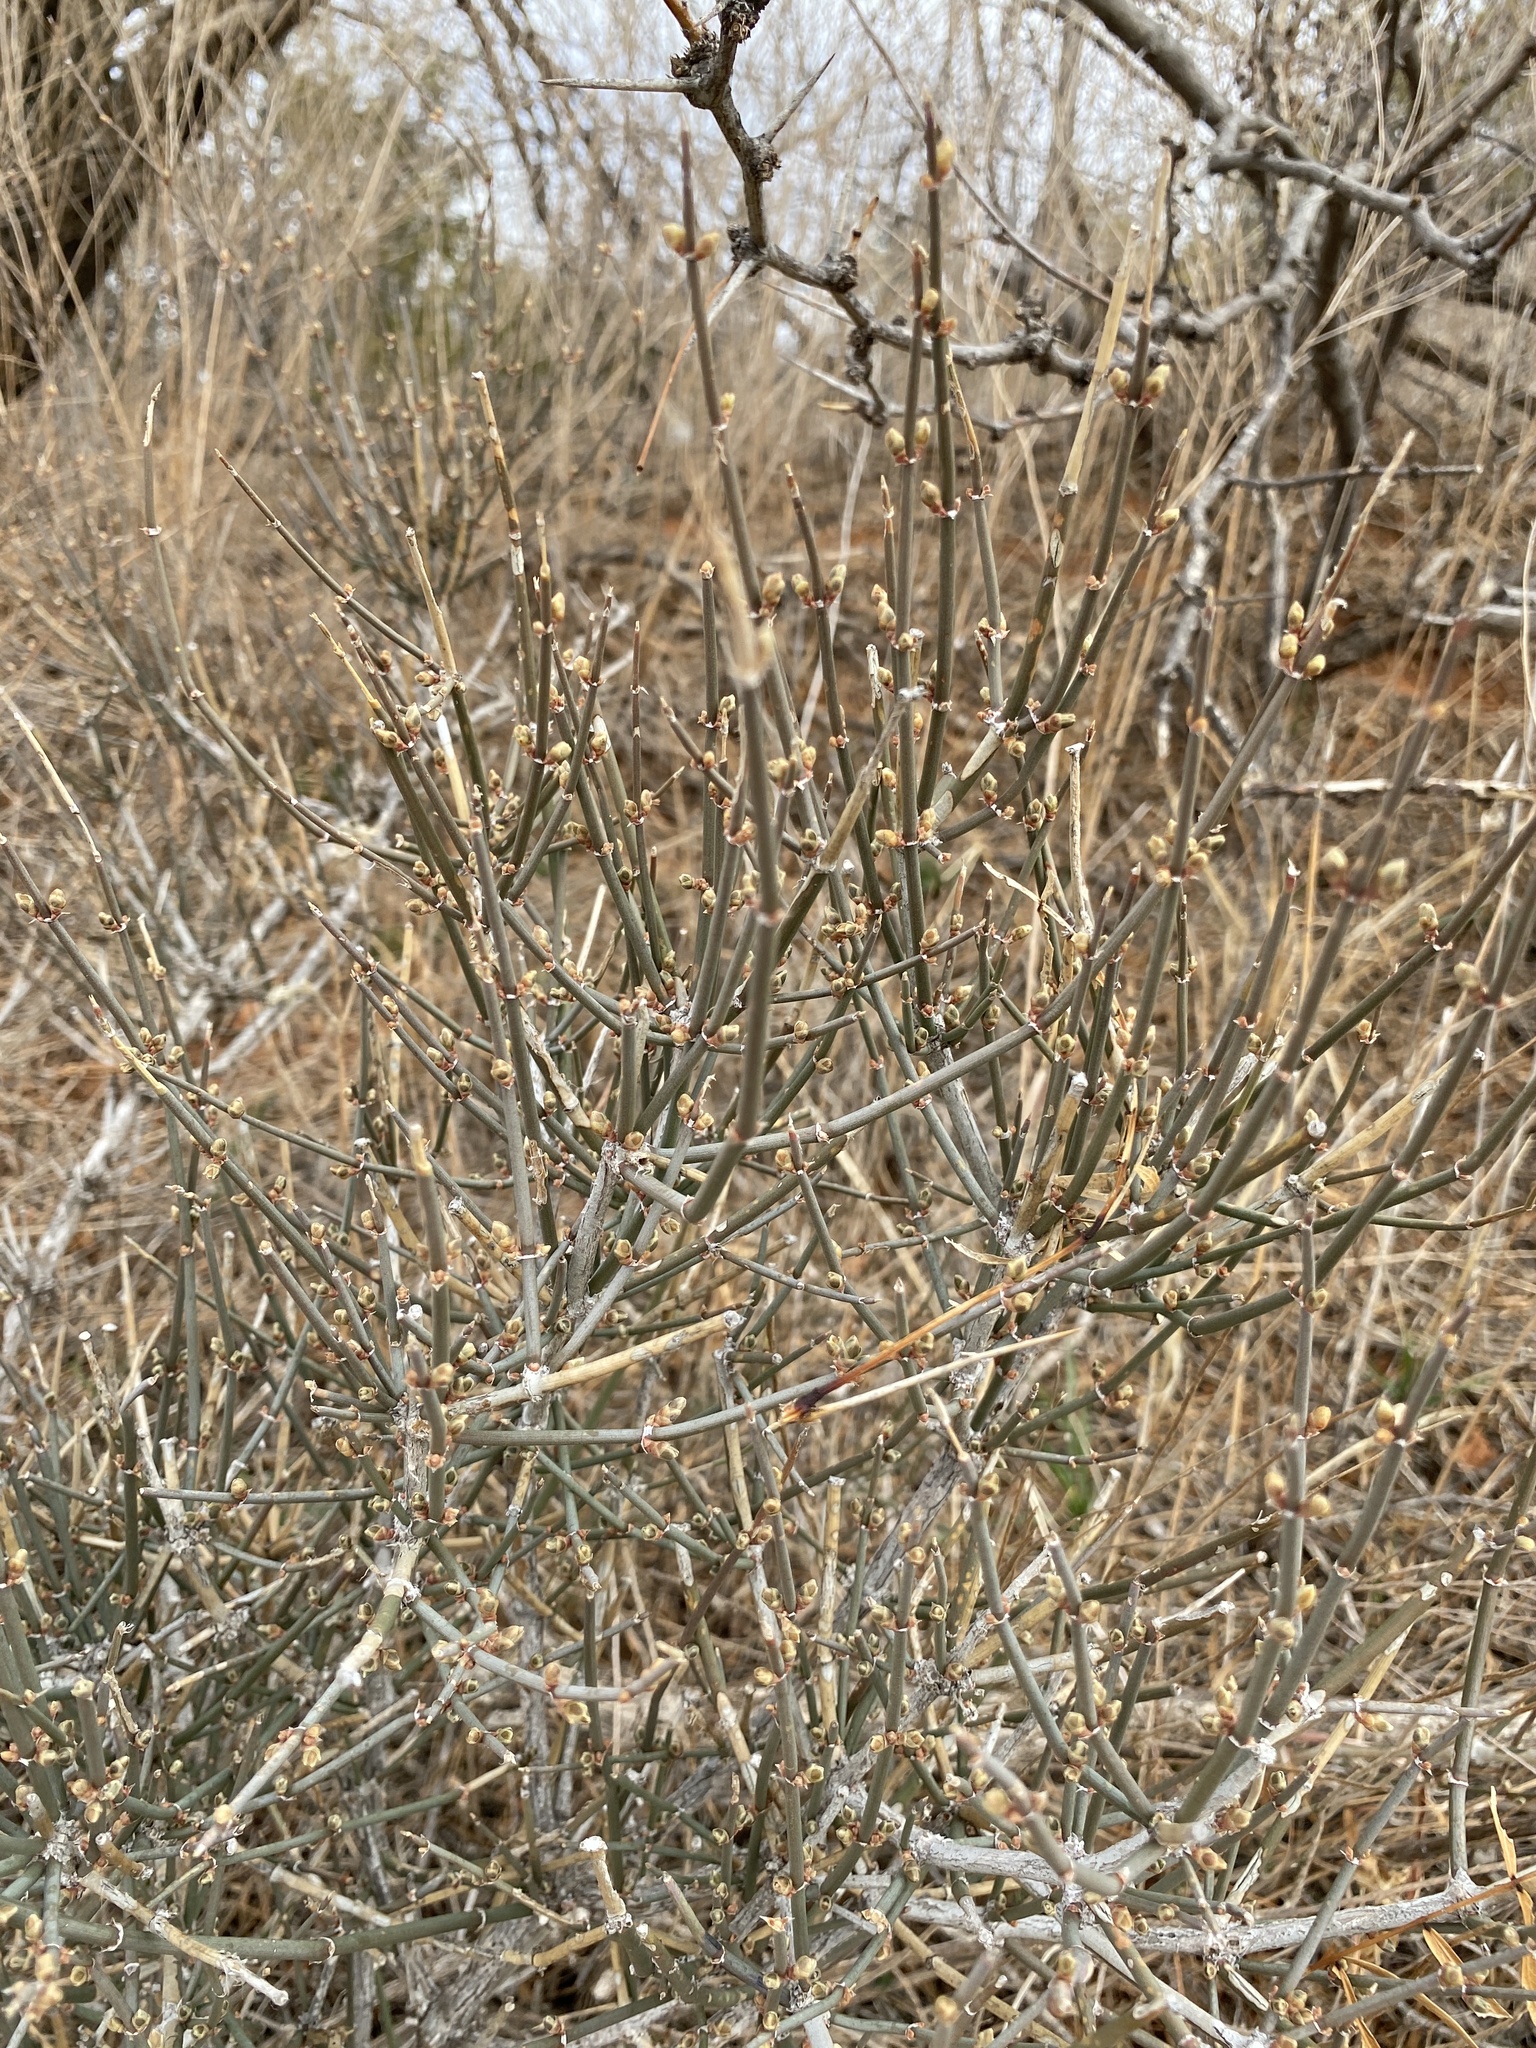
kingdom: Plantae
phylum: Tracheophyta
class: Gnetopsida
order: Ephedrales
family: Ephedraceae
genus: Ephedra
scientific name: Ephedra antisyphilitica
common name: Clipweed
